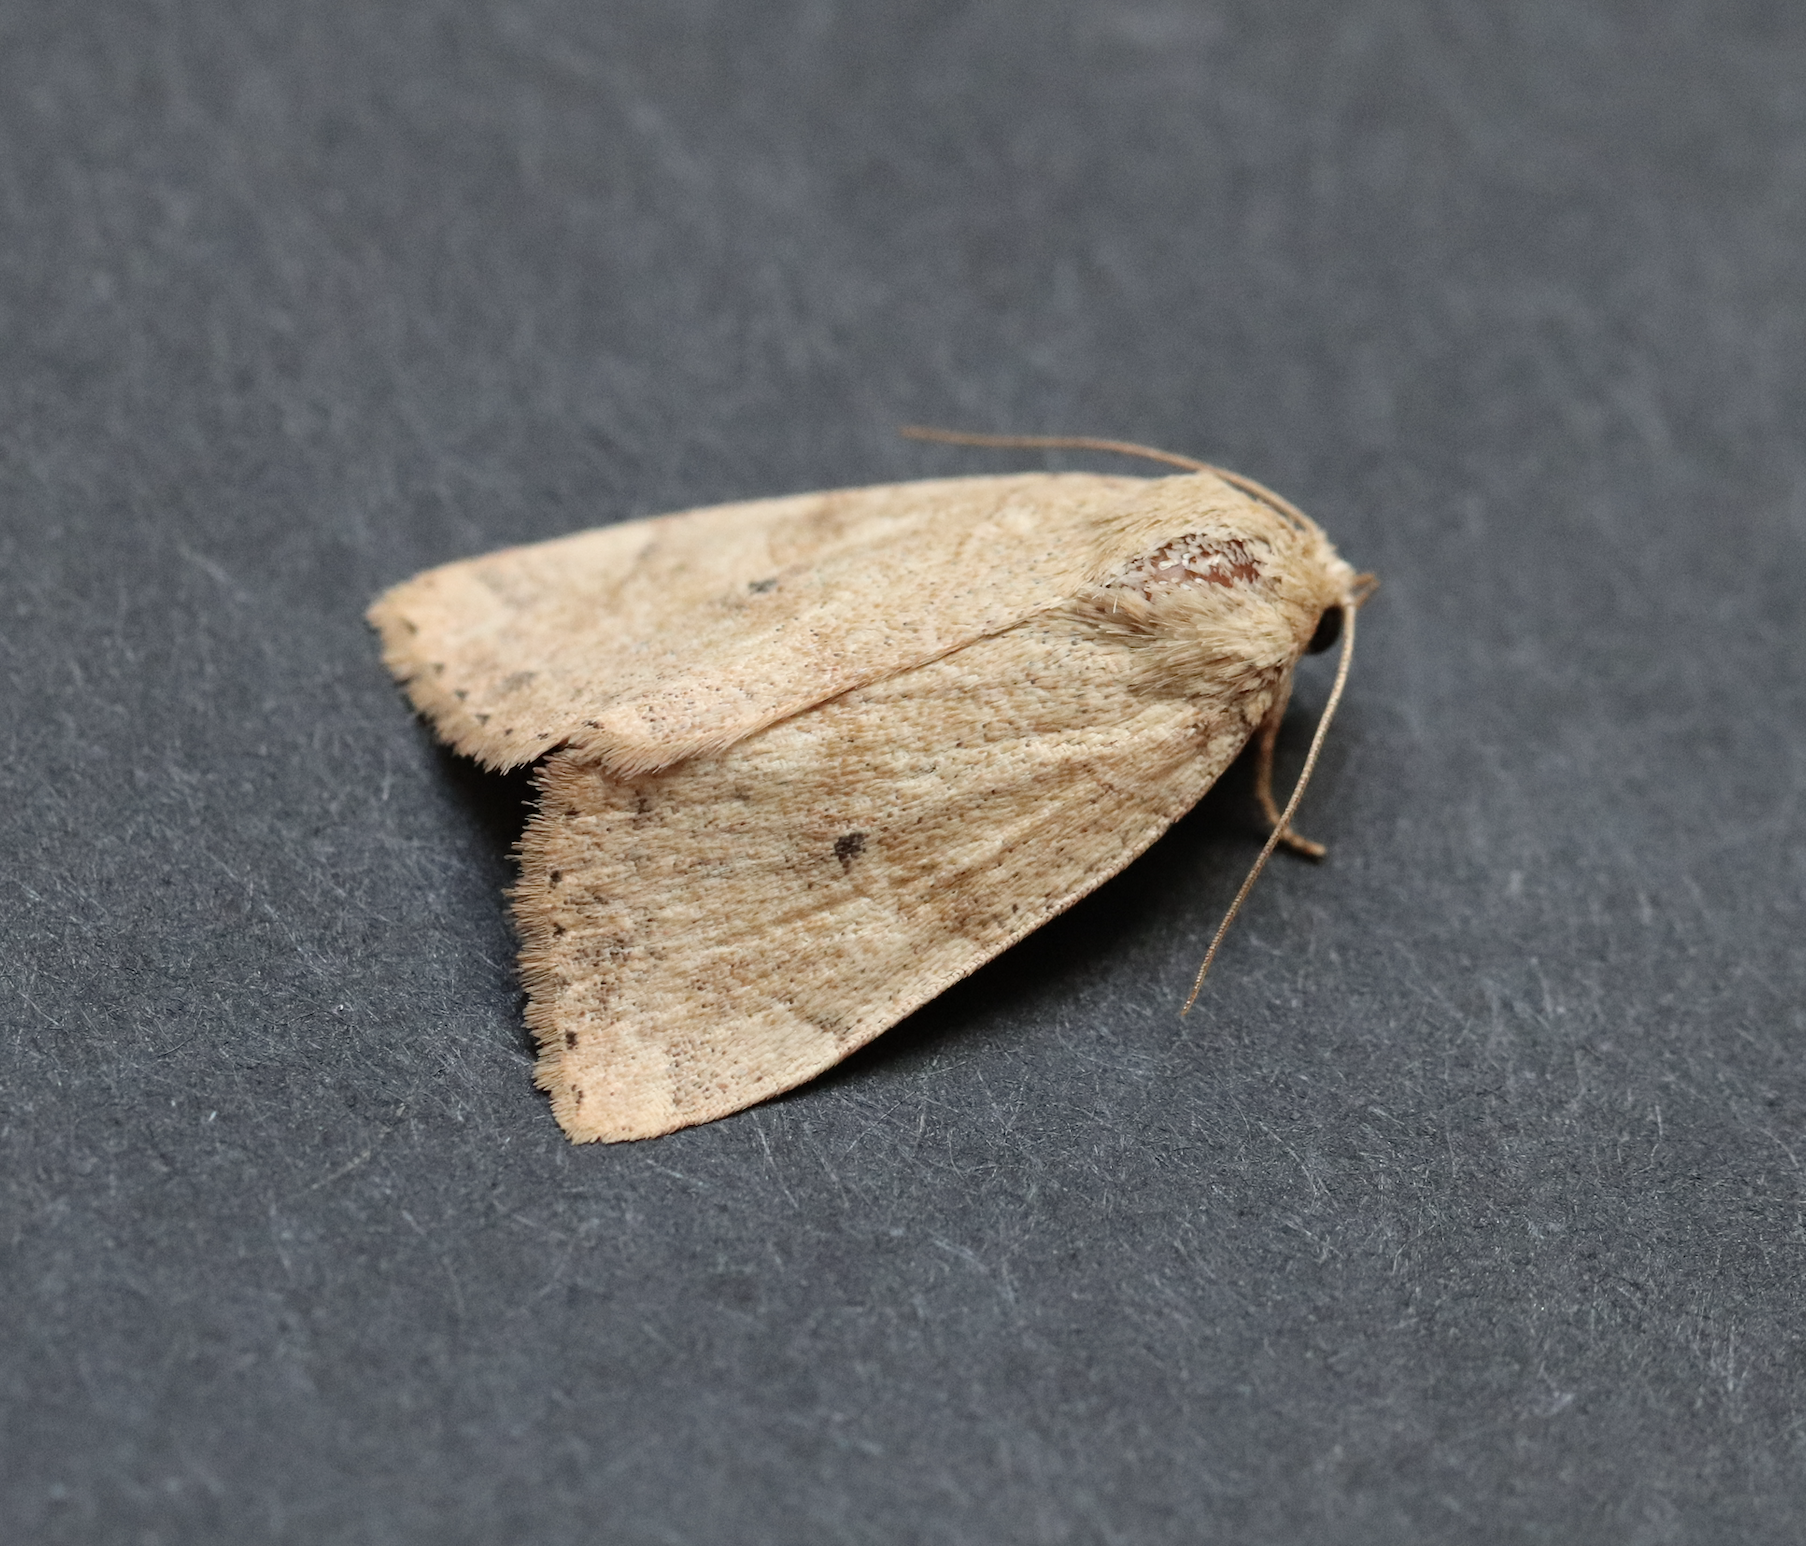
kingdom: Animalia
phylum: Arthropoda
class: Insecta
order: Lepidoptera
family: Noctuidae
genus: Cosmia
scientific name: Cosmia trapezina
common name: Dun-bar
